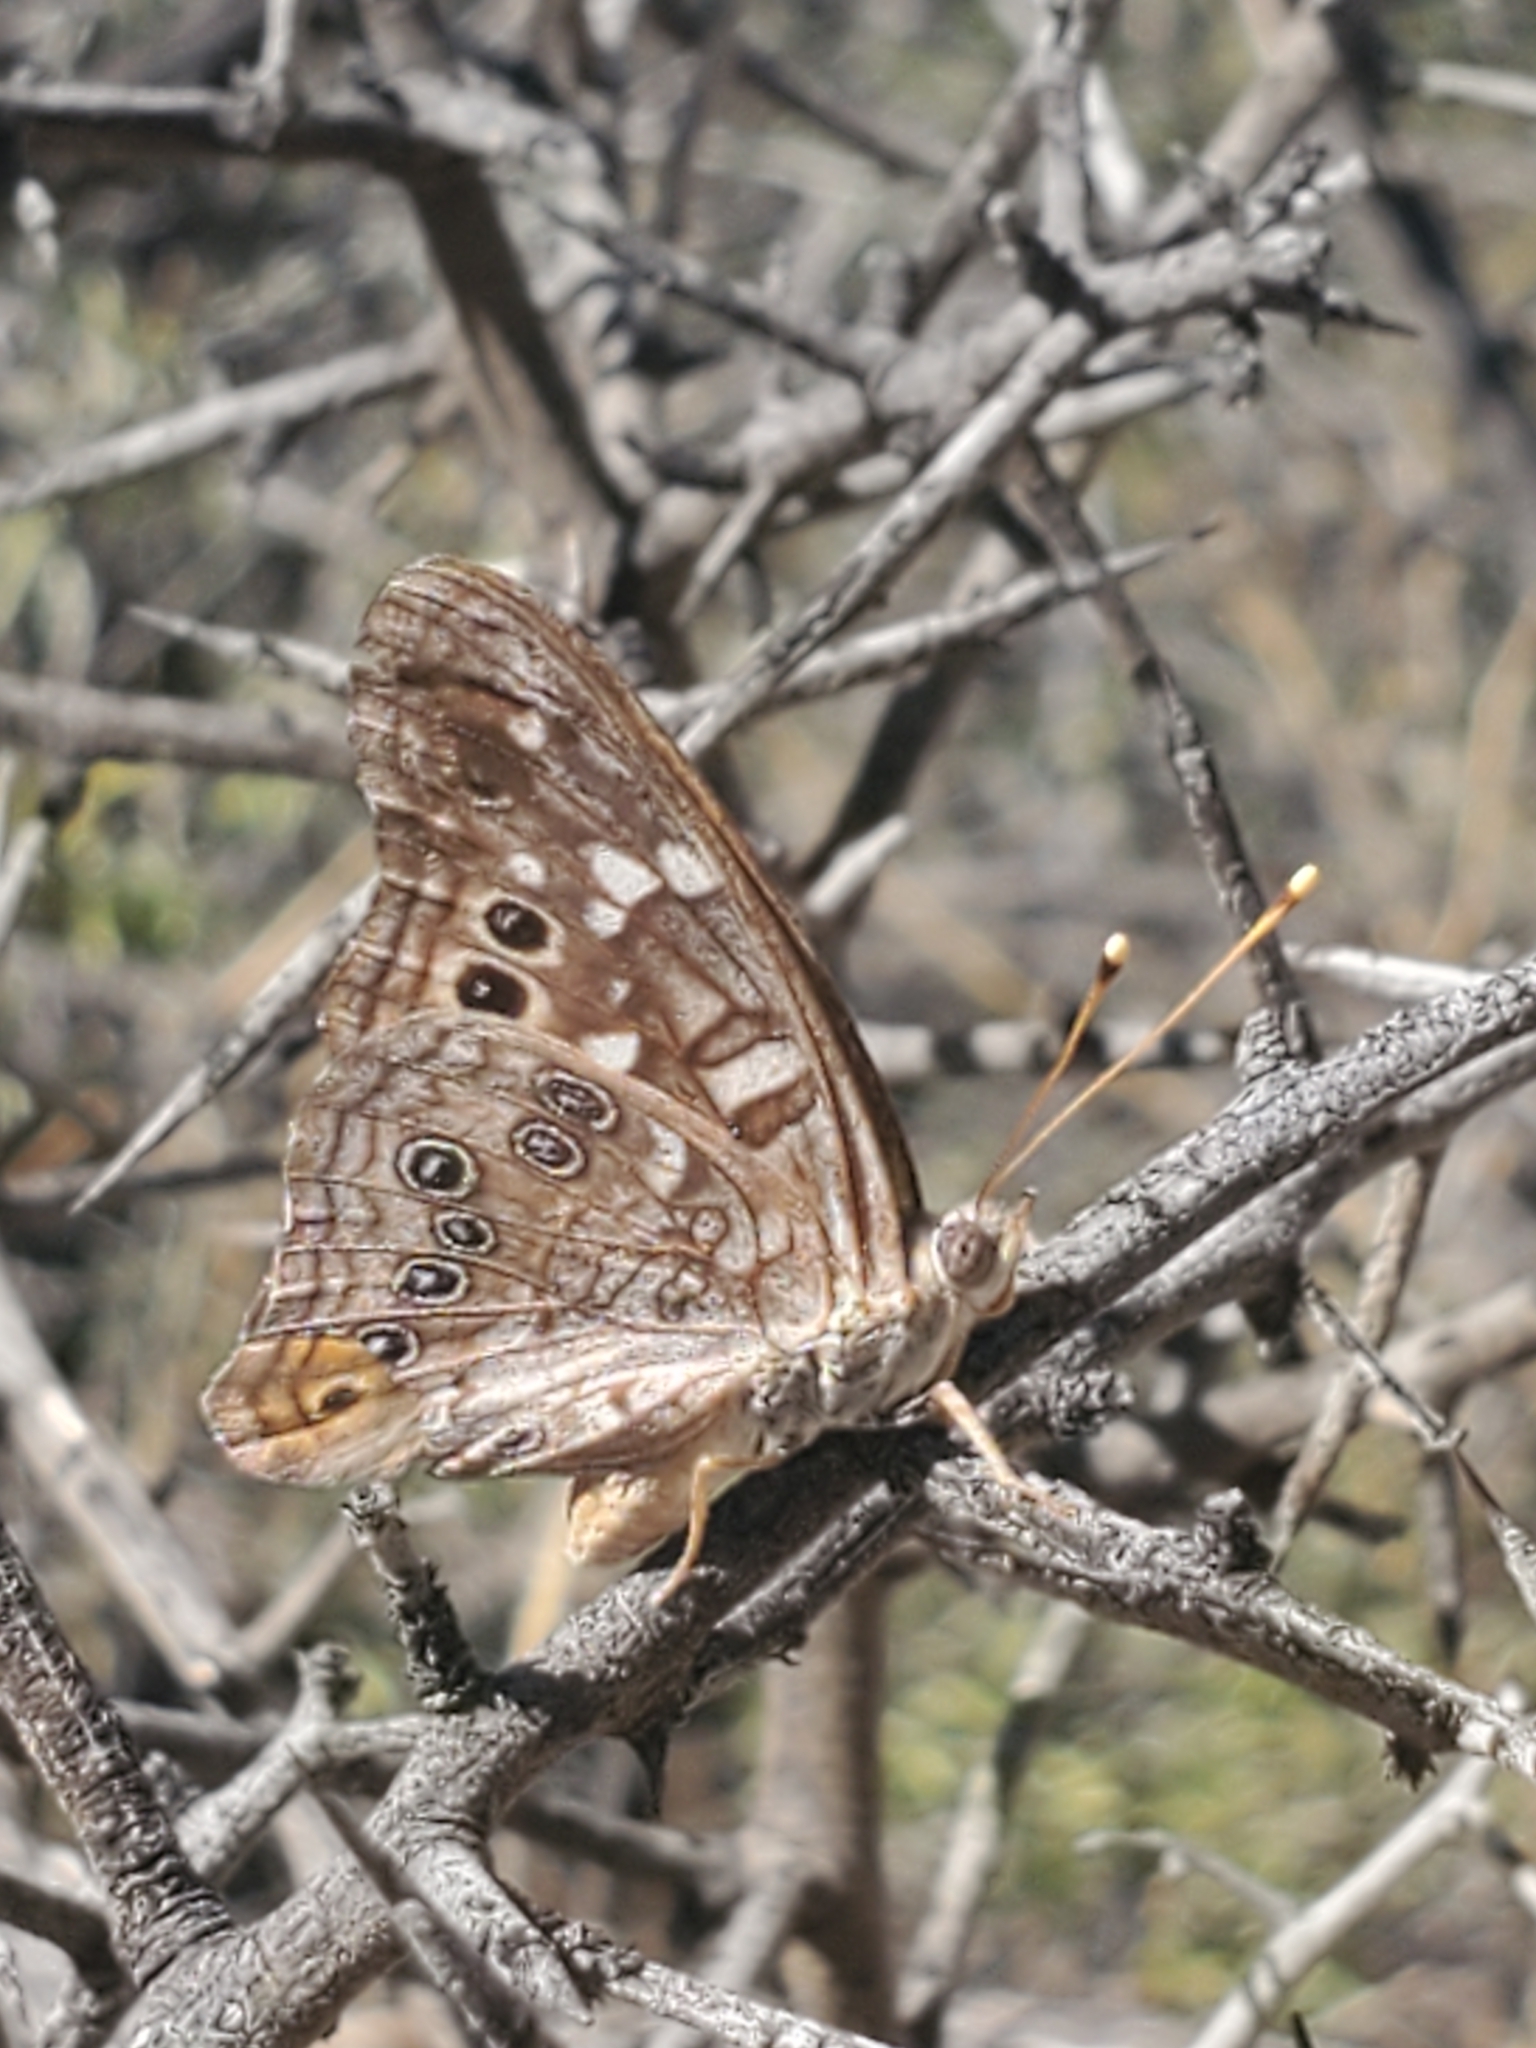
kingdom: Animalia
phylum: Arthropoda
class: Insecta
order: Lepidoptera
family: Nymphalidae
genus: Asterocampa
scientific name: Asterocampa leilia
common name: Empress leilia
